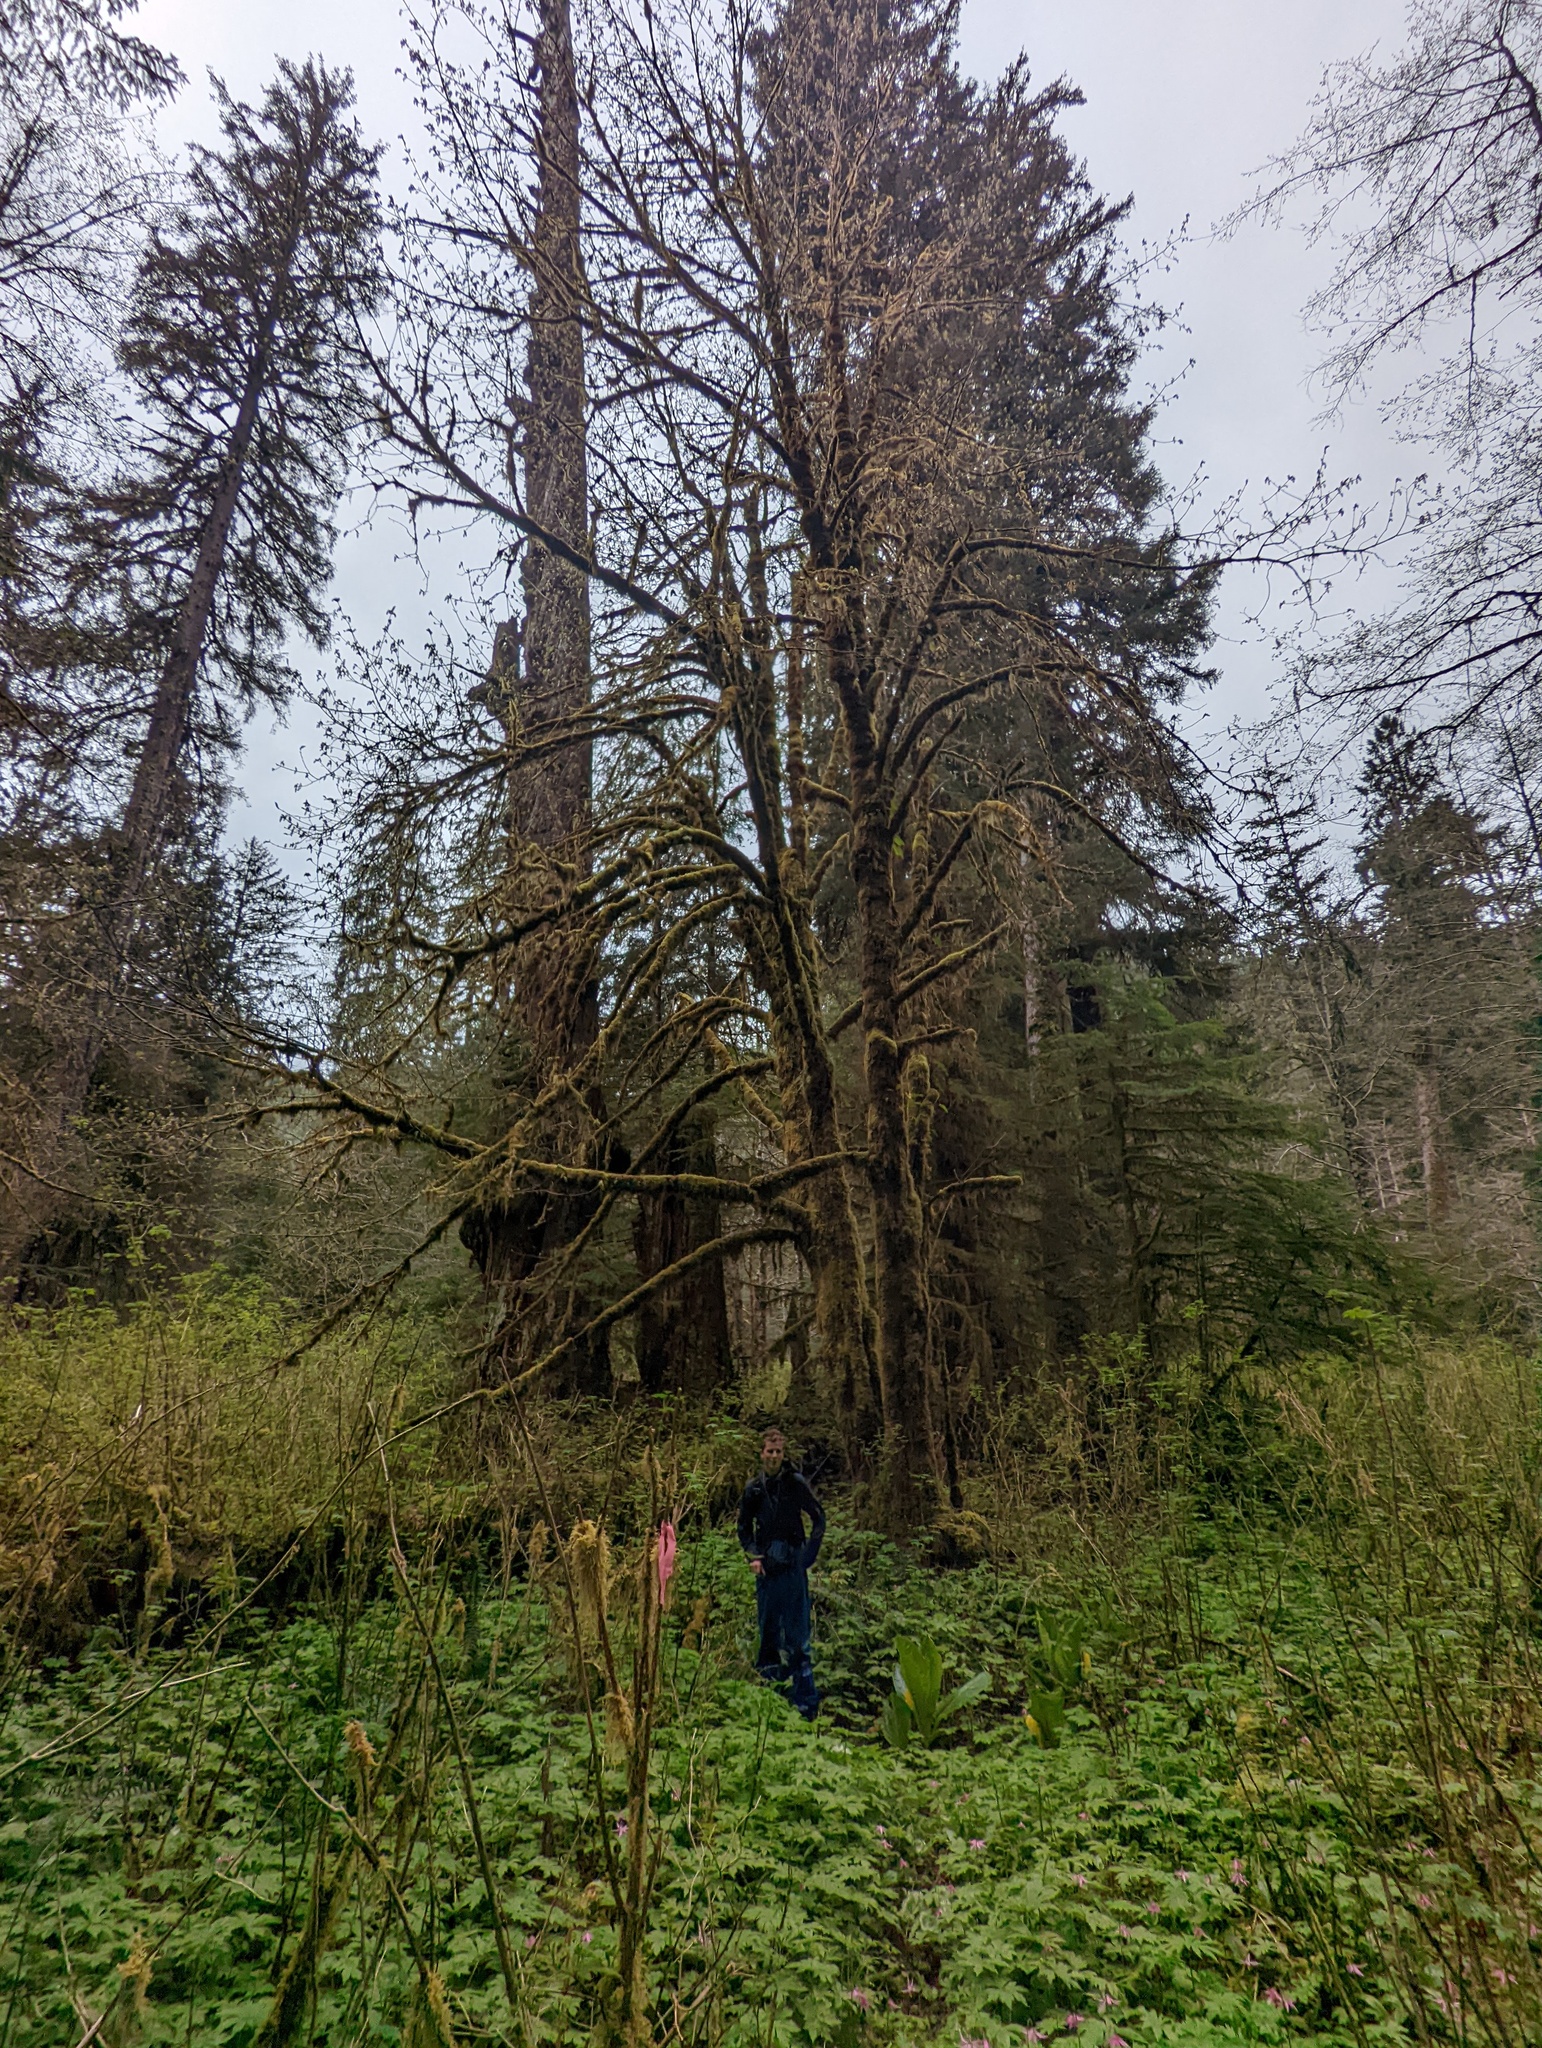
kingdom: Plantae
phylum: Tracheophyta
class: Magnoliopsida
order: Sapindales
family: Sapindaceae
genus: Acer
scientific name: Acer macrophyllum
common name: Oregon maple
